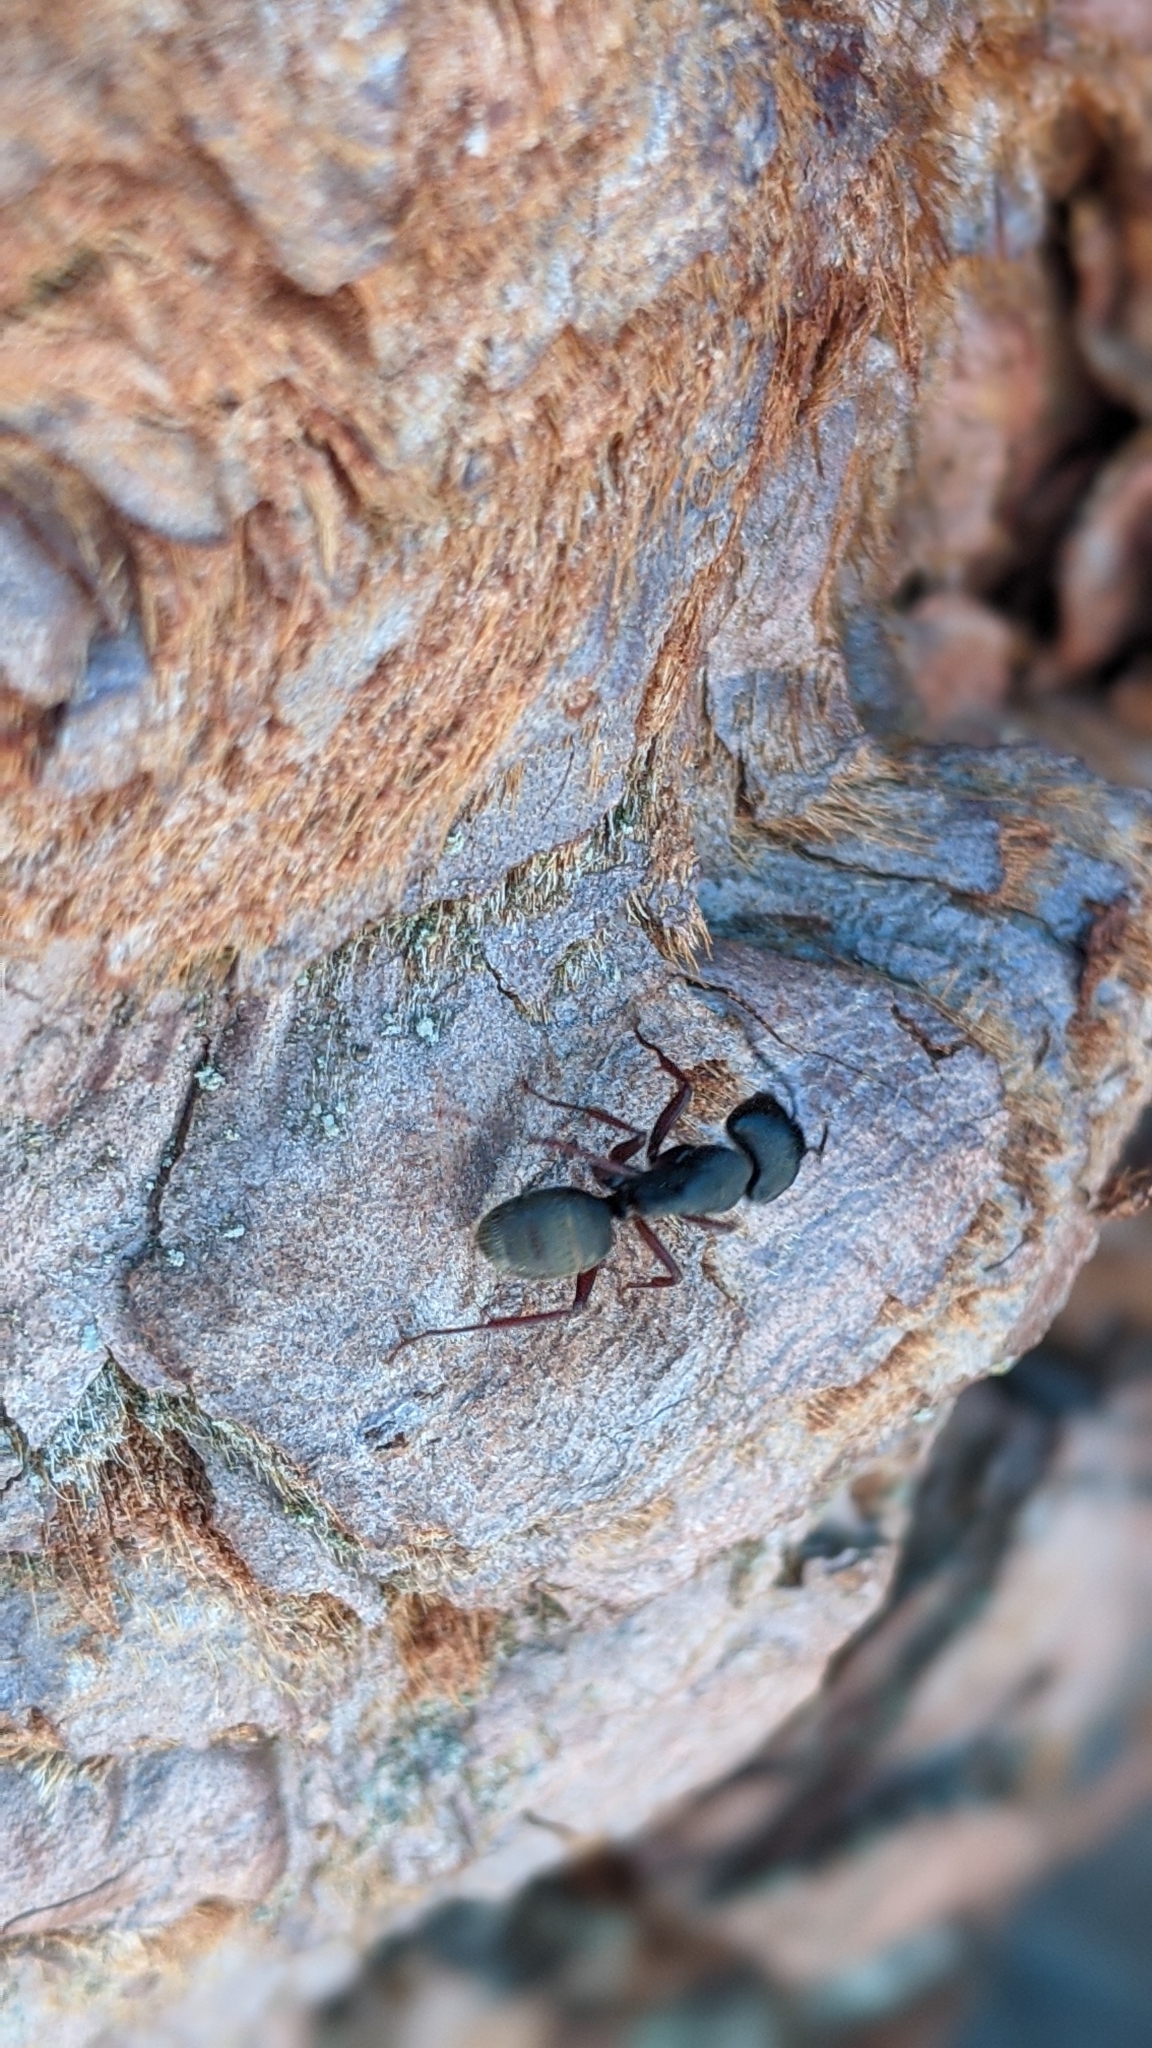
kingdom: Animalia
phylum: Arthropoda
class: Insecta
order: Hymenoptera
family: Formicidae
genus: Camponotus
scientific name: Camponotus modoc
